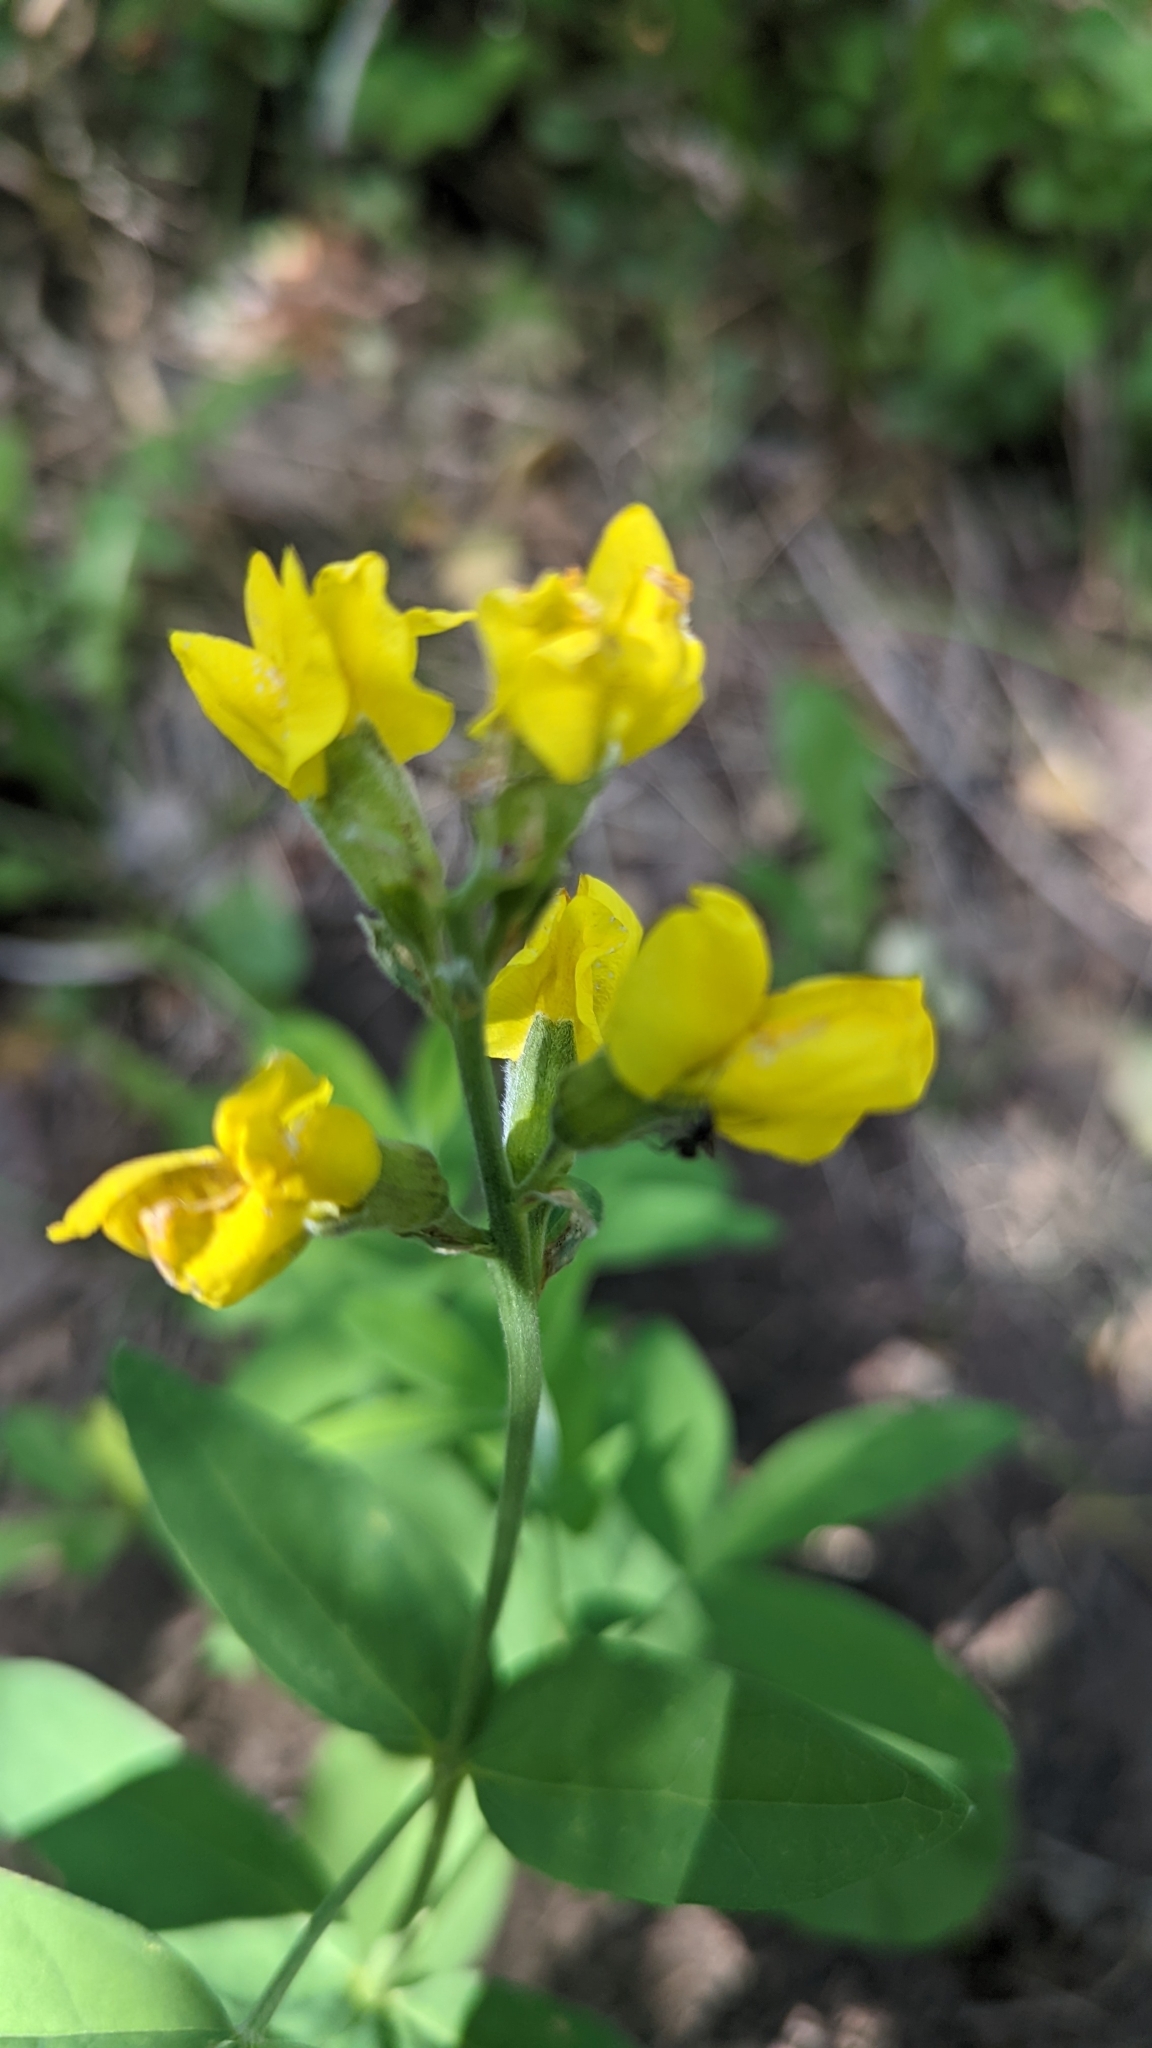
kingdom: Plantae
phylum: Tracheophyta
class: Magnoliopsida
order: Fabales
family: Fabaceae
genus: Thermopsis
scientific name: Thermopsis montana
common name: False lupin
